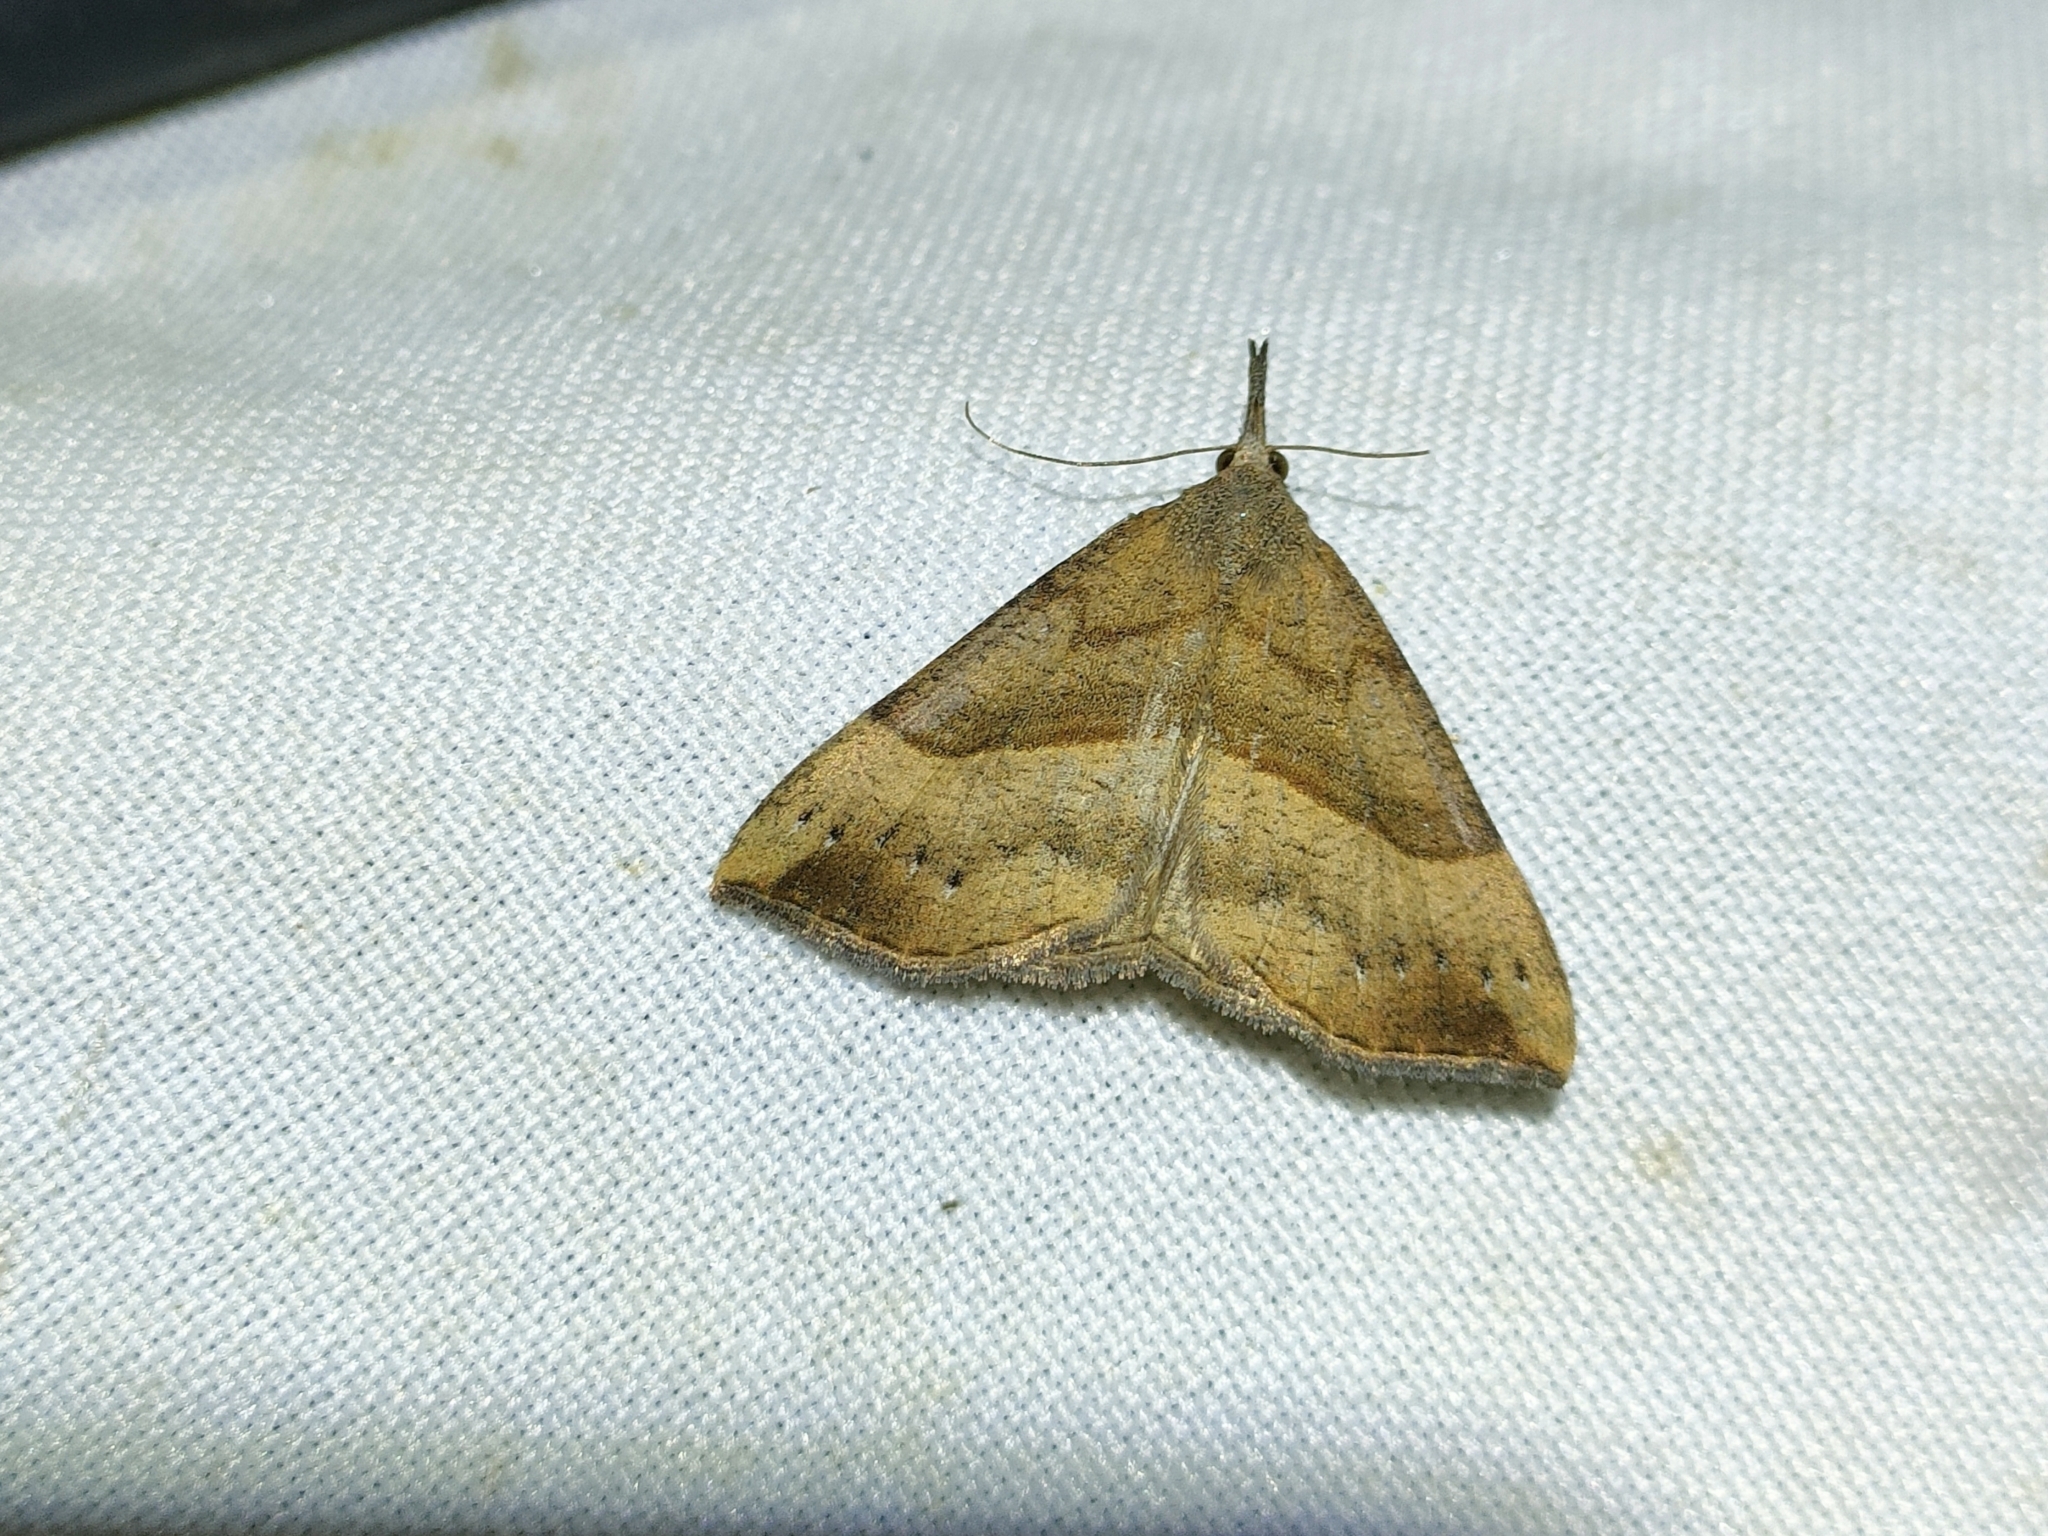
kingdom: Animalia
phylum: Arthropoda
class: Insecta
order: Lepidoptera
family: Erebidae
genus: Hypena
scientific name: Hypena proboscidalis
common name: Snout
